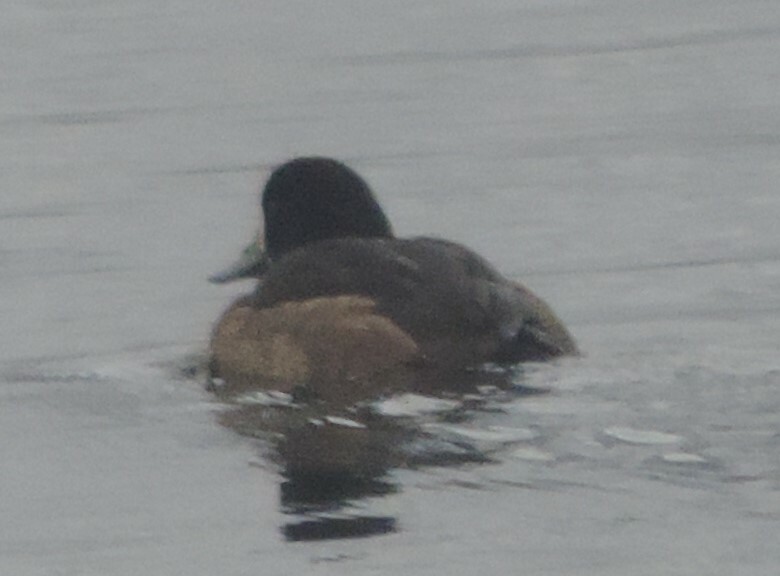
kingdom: Animalia
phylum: Chordata
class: Aves
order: Anseriformes
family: Anatidae
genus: Aythya
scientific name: Aythya marila
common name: Greater scaup
